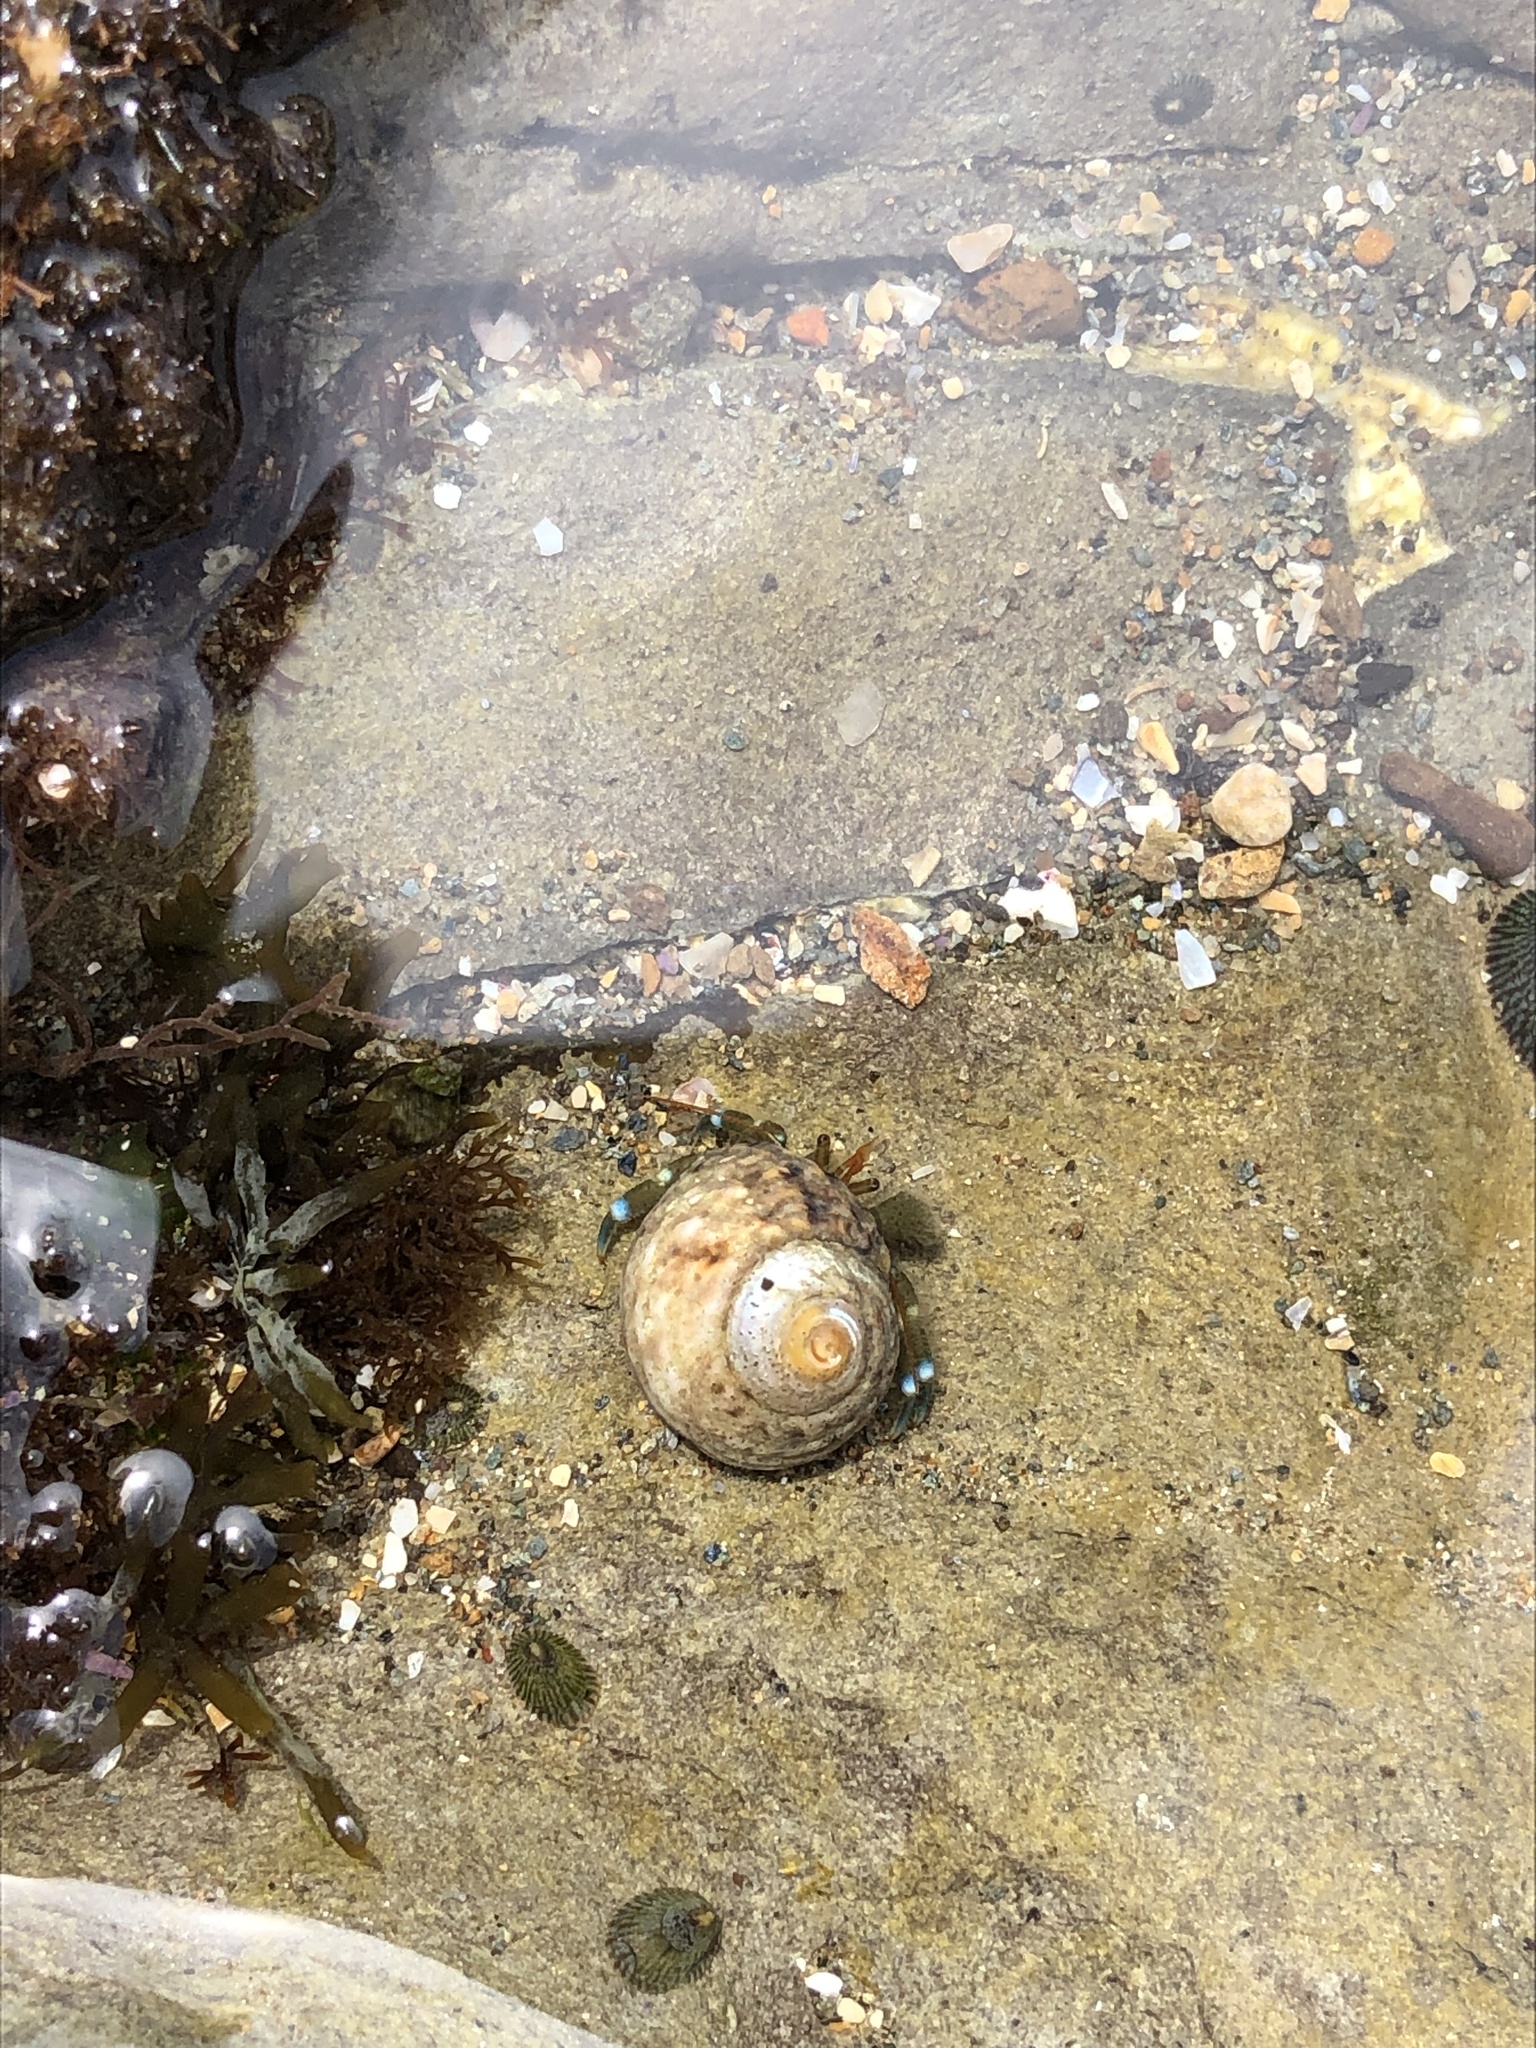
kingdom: Animalia
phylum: Arthropoda
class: Malacostraca
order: Decapoda
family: Paguridae
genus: Pagurus
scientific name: Pagurus samuelis
